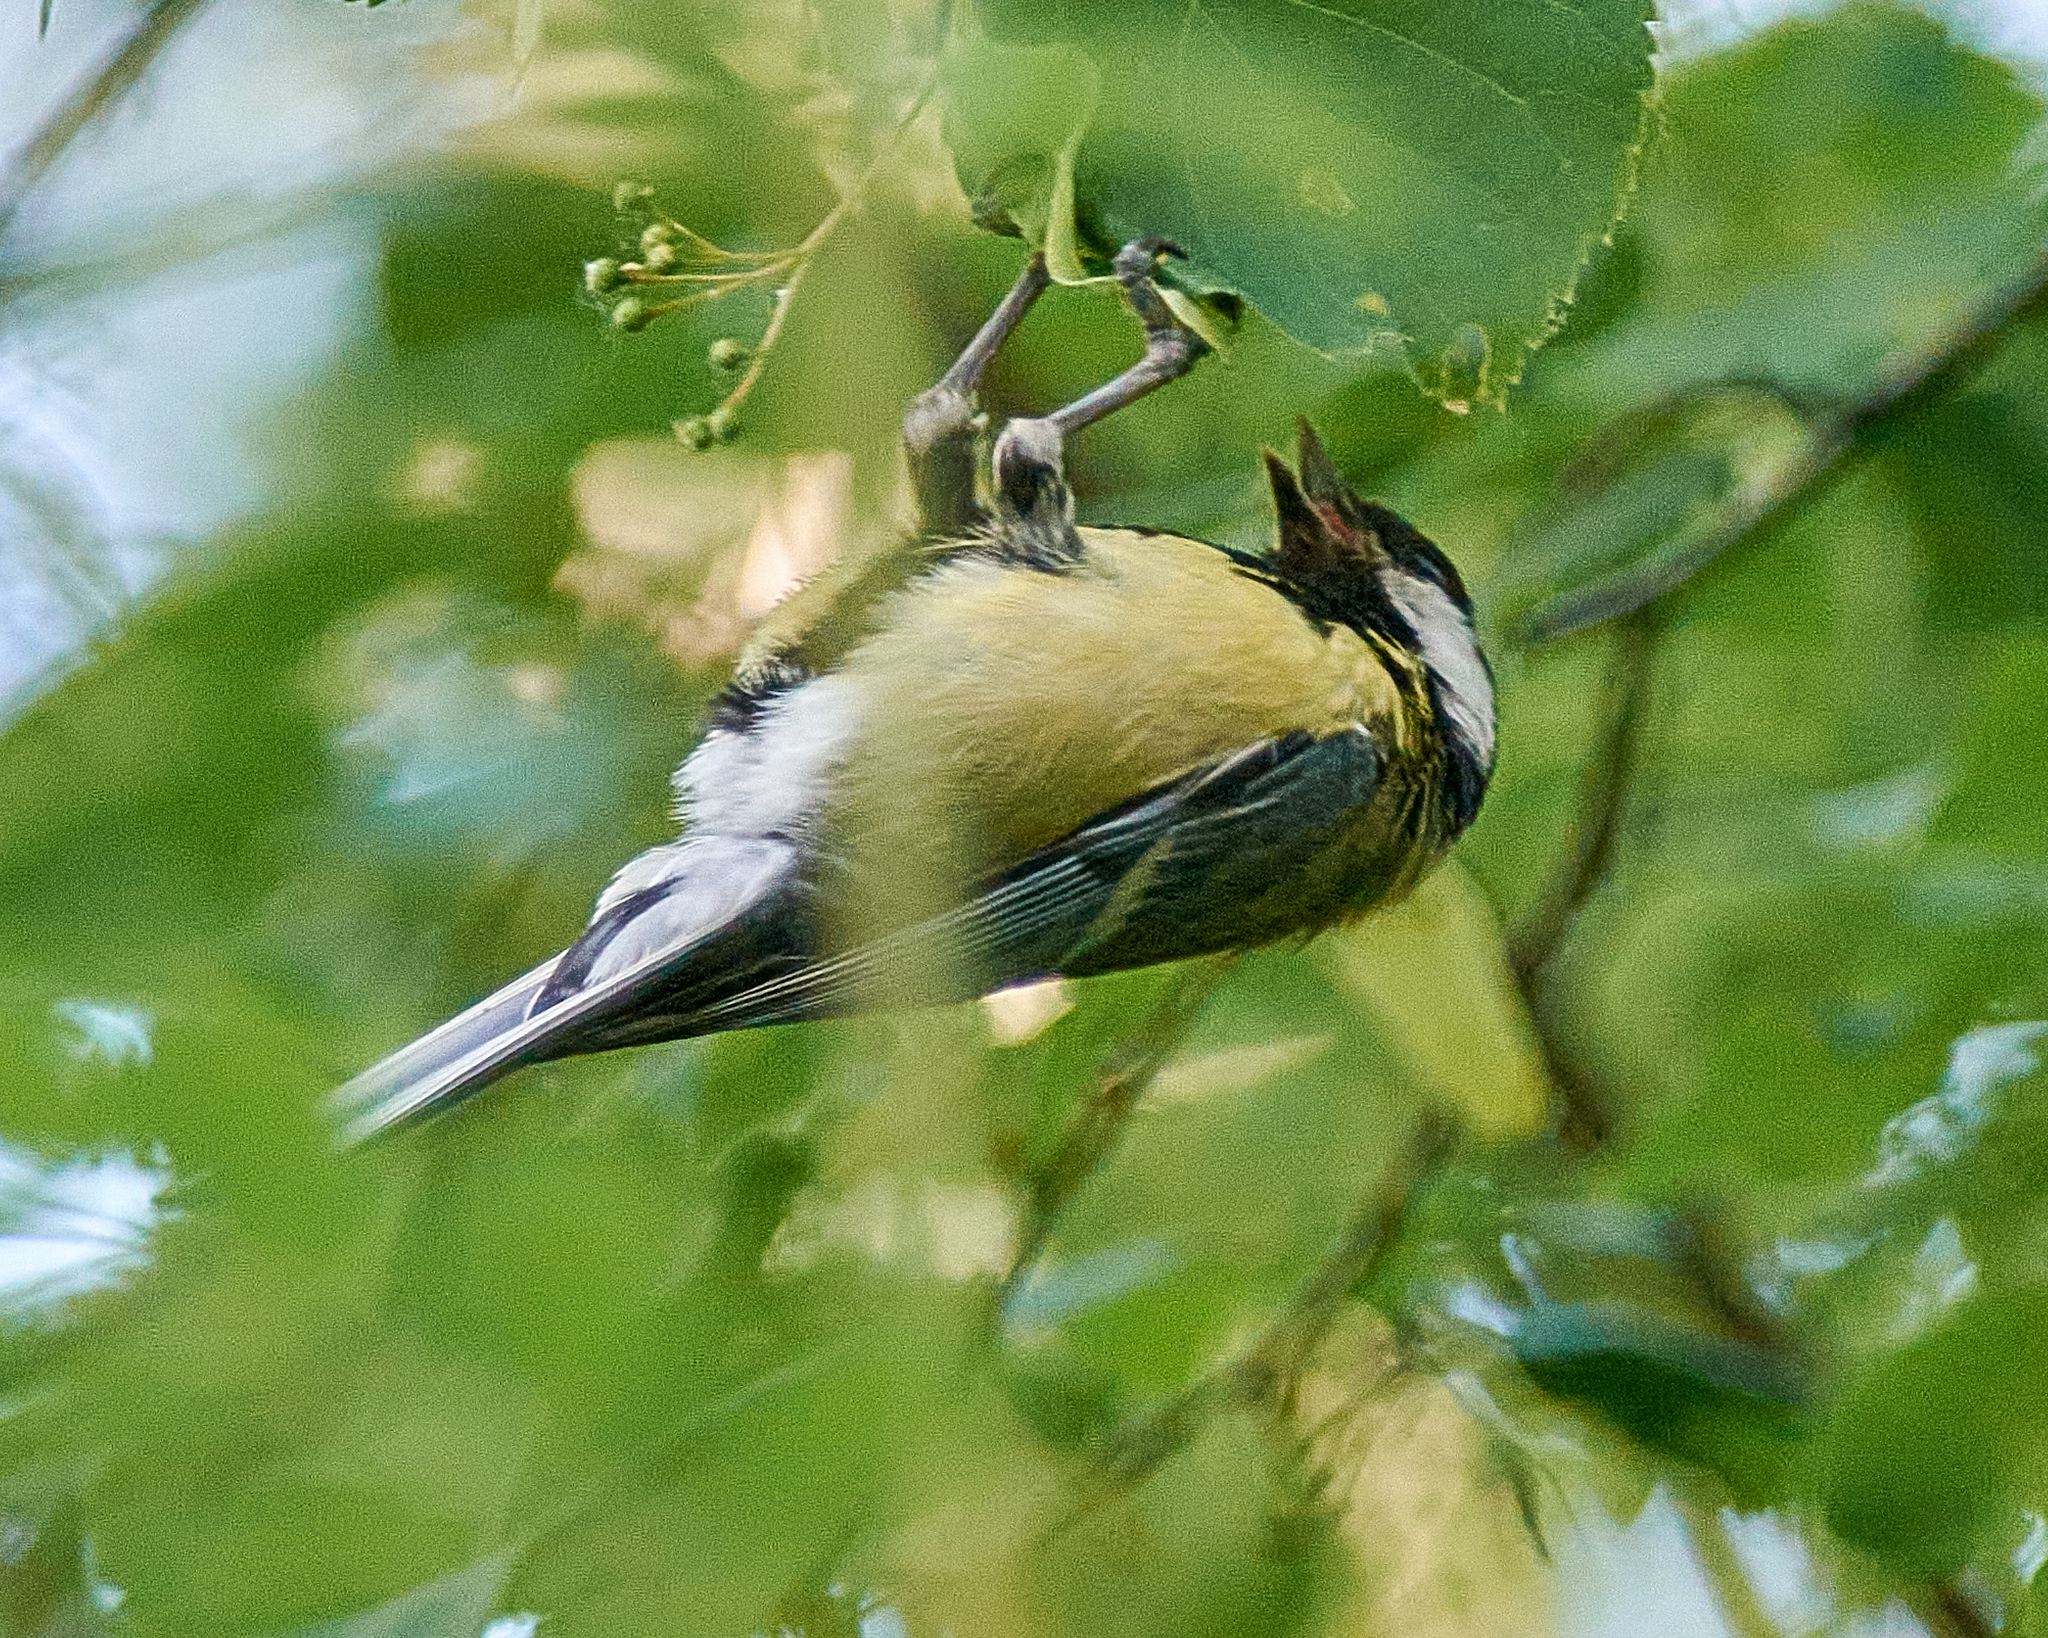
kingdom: Animalia
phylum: Chordata
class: Aves
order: Passeriformes
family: Paridae
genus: Parus
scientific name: Parus major
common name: Great tit
